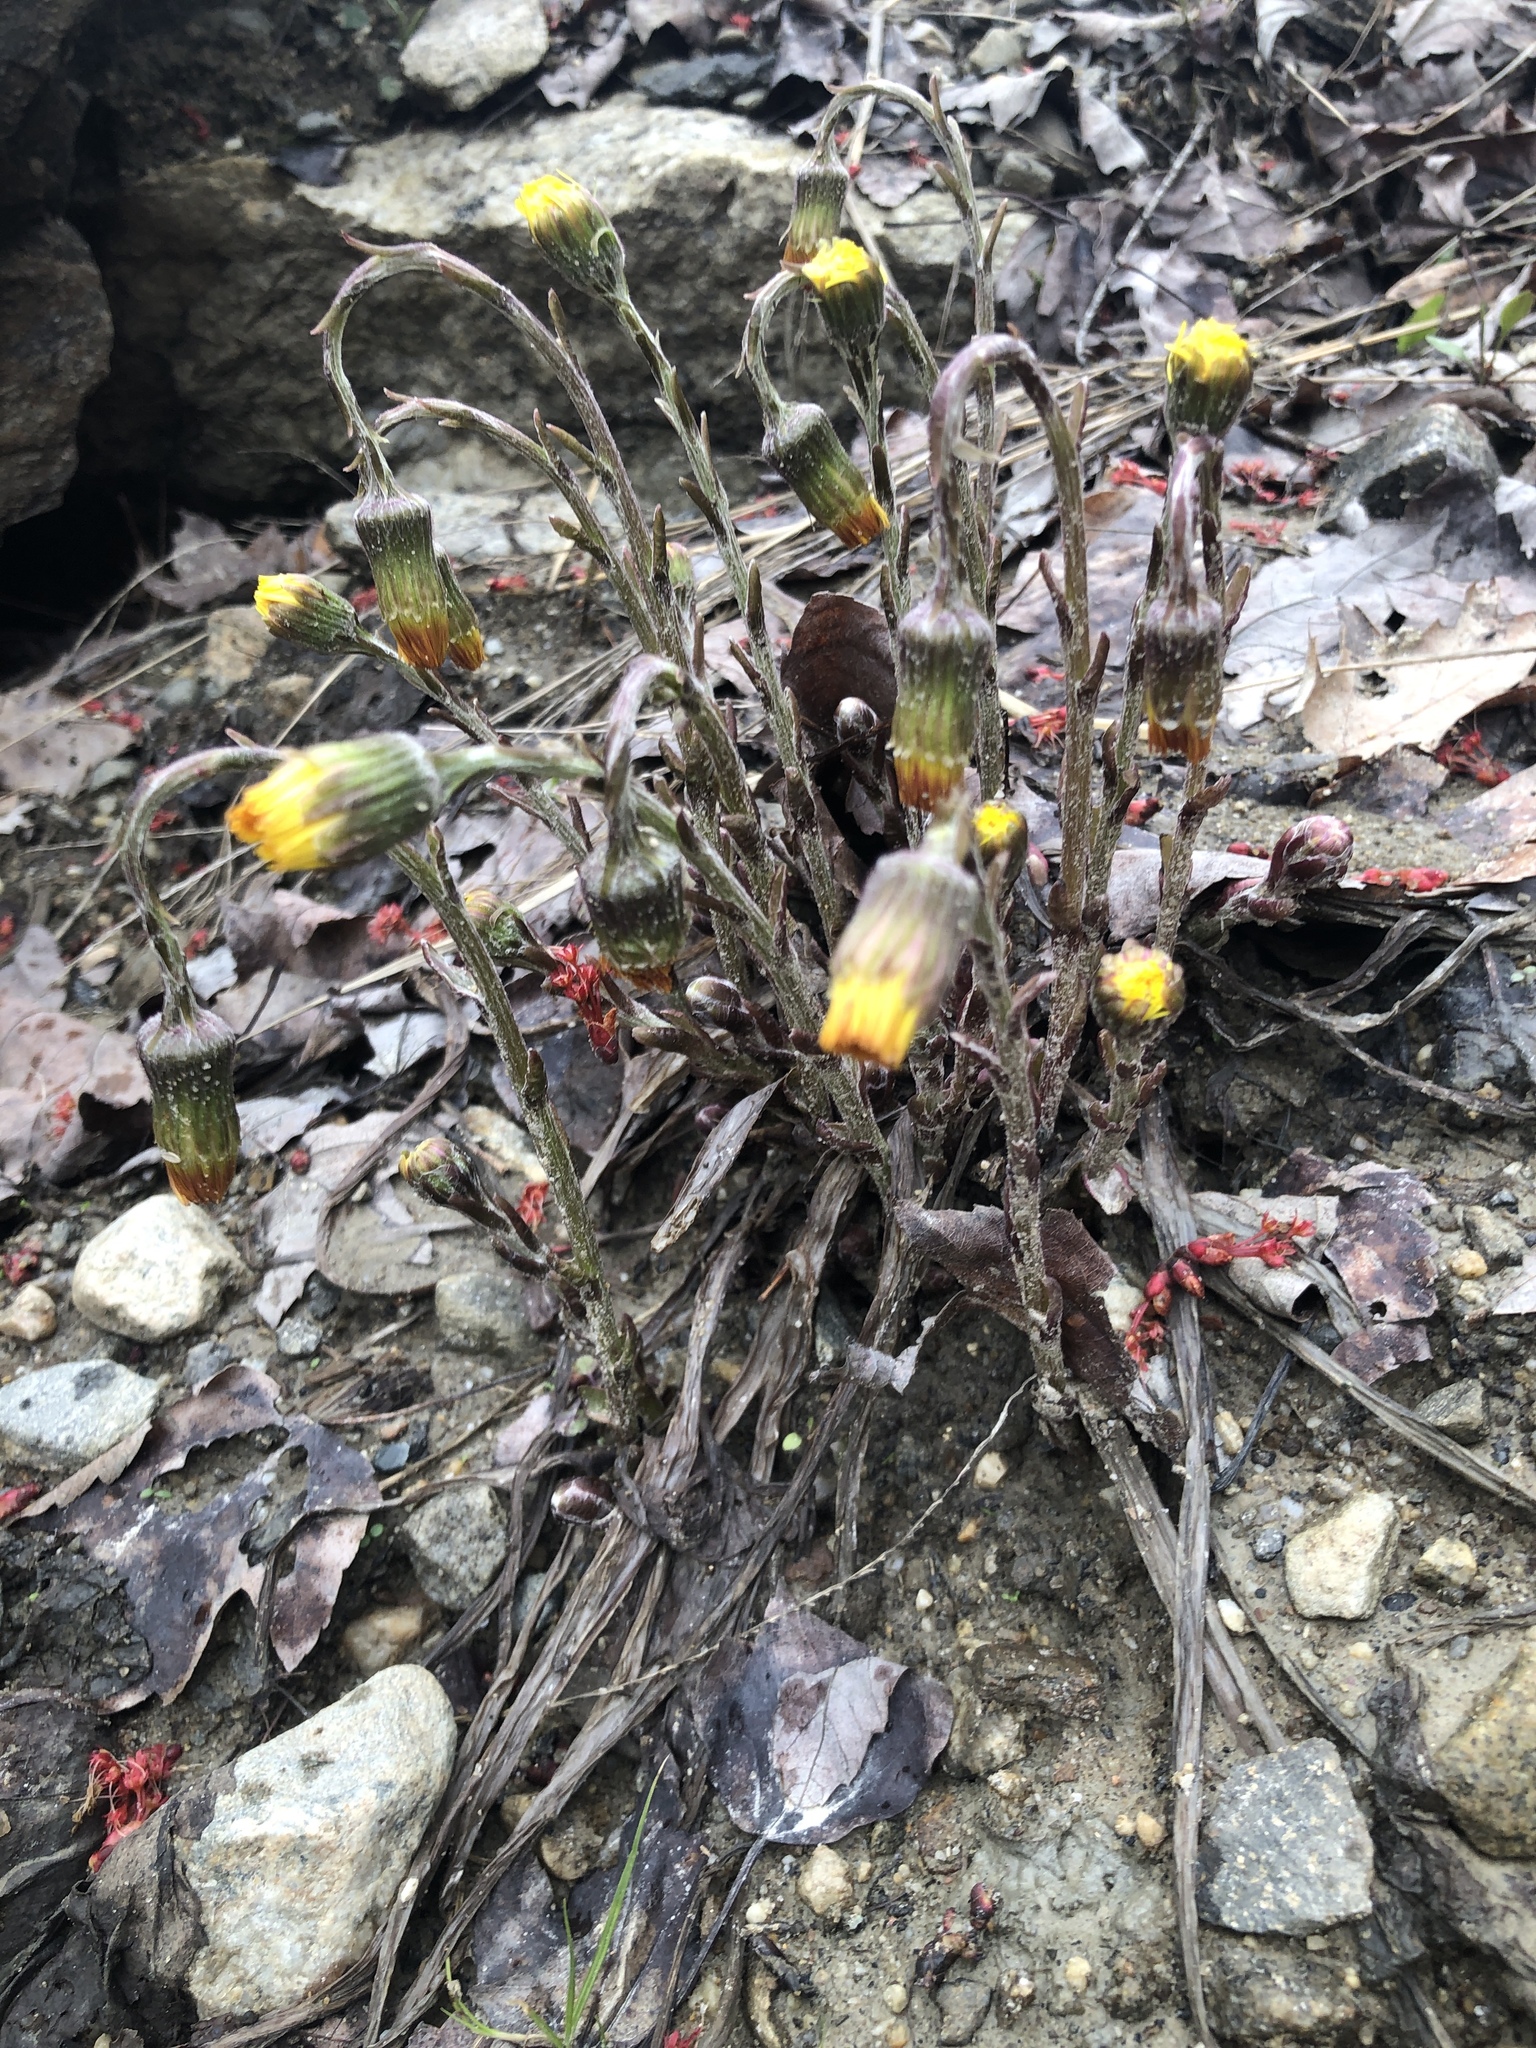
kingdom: Plantae
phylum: Tracheophyta
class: Magnoliopsida
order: Asterales
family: Asteraceae
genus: Tussilago
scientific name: Tussilago farfara
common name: Coltsfoot
